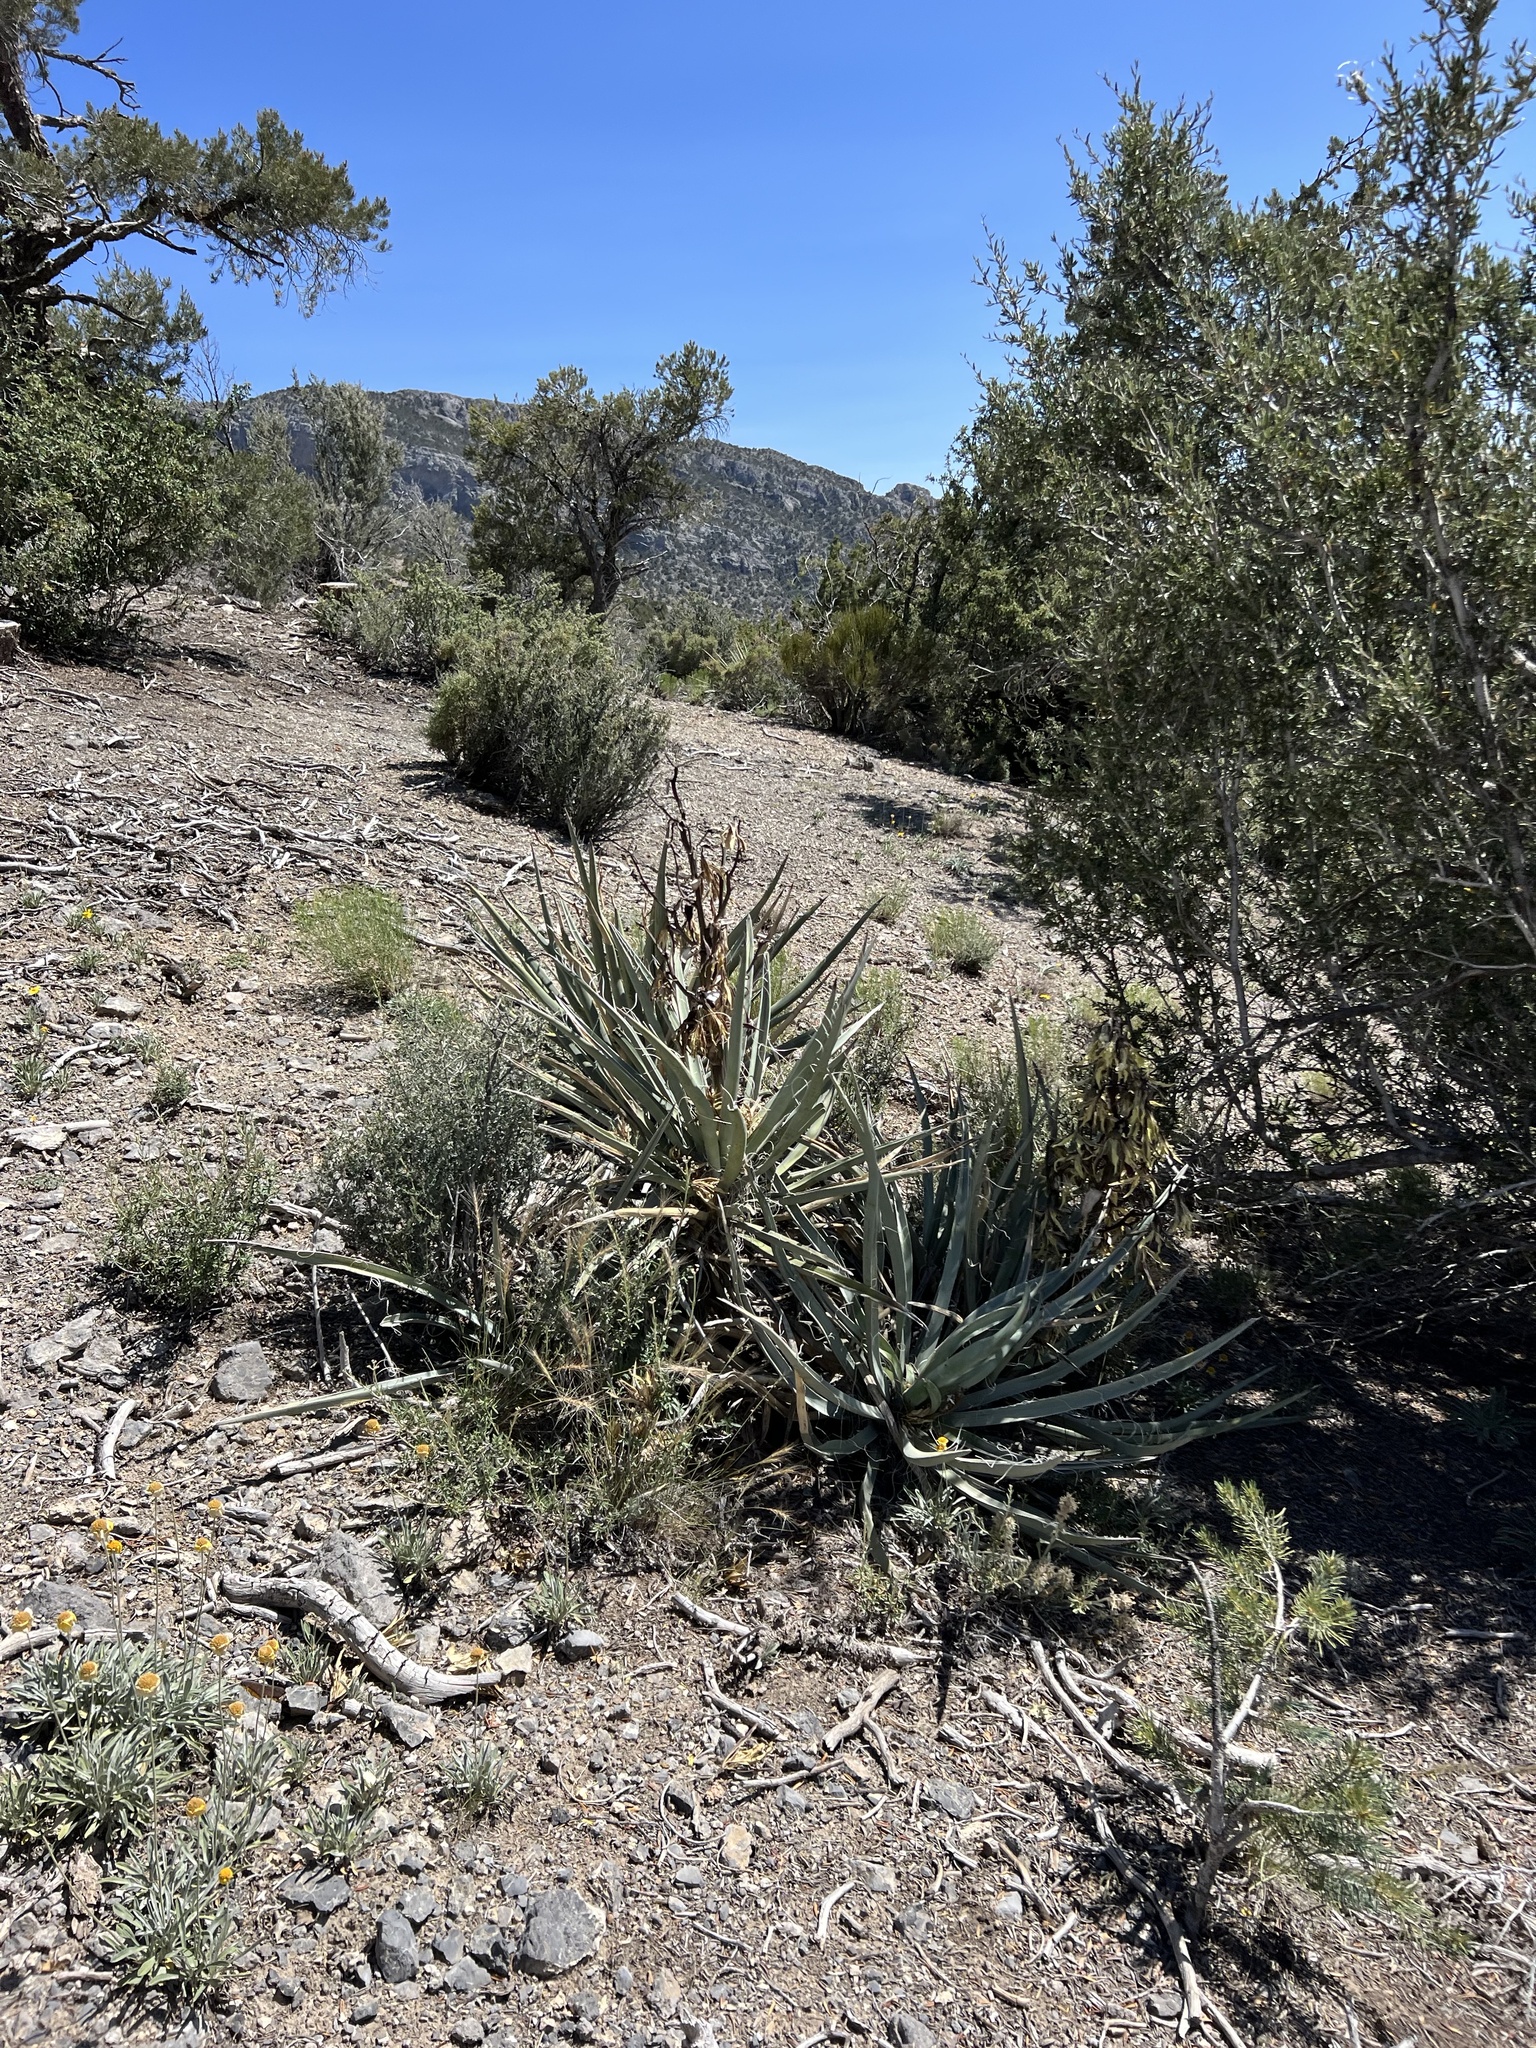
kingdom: Plantae
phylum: Tracheophyta
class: Liliopsida
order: Asparagales
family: Asparagaceae
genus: Yucca
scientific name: Yucca baccata
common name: Banana yucca
